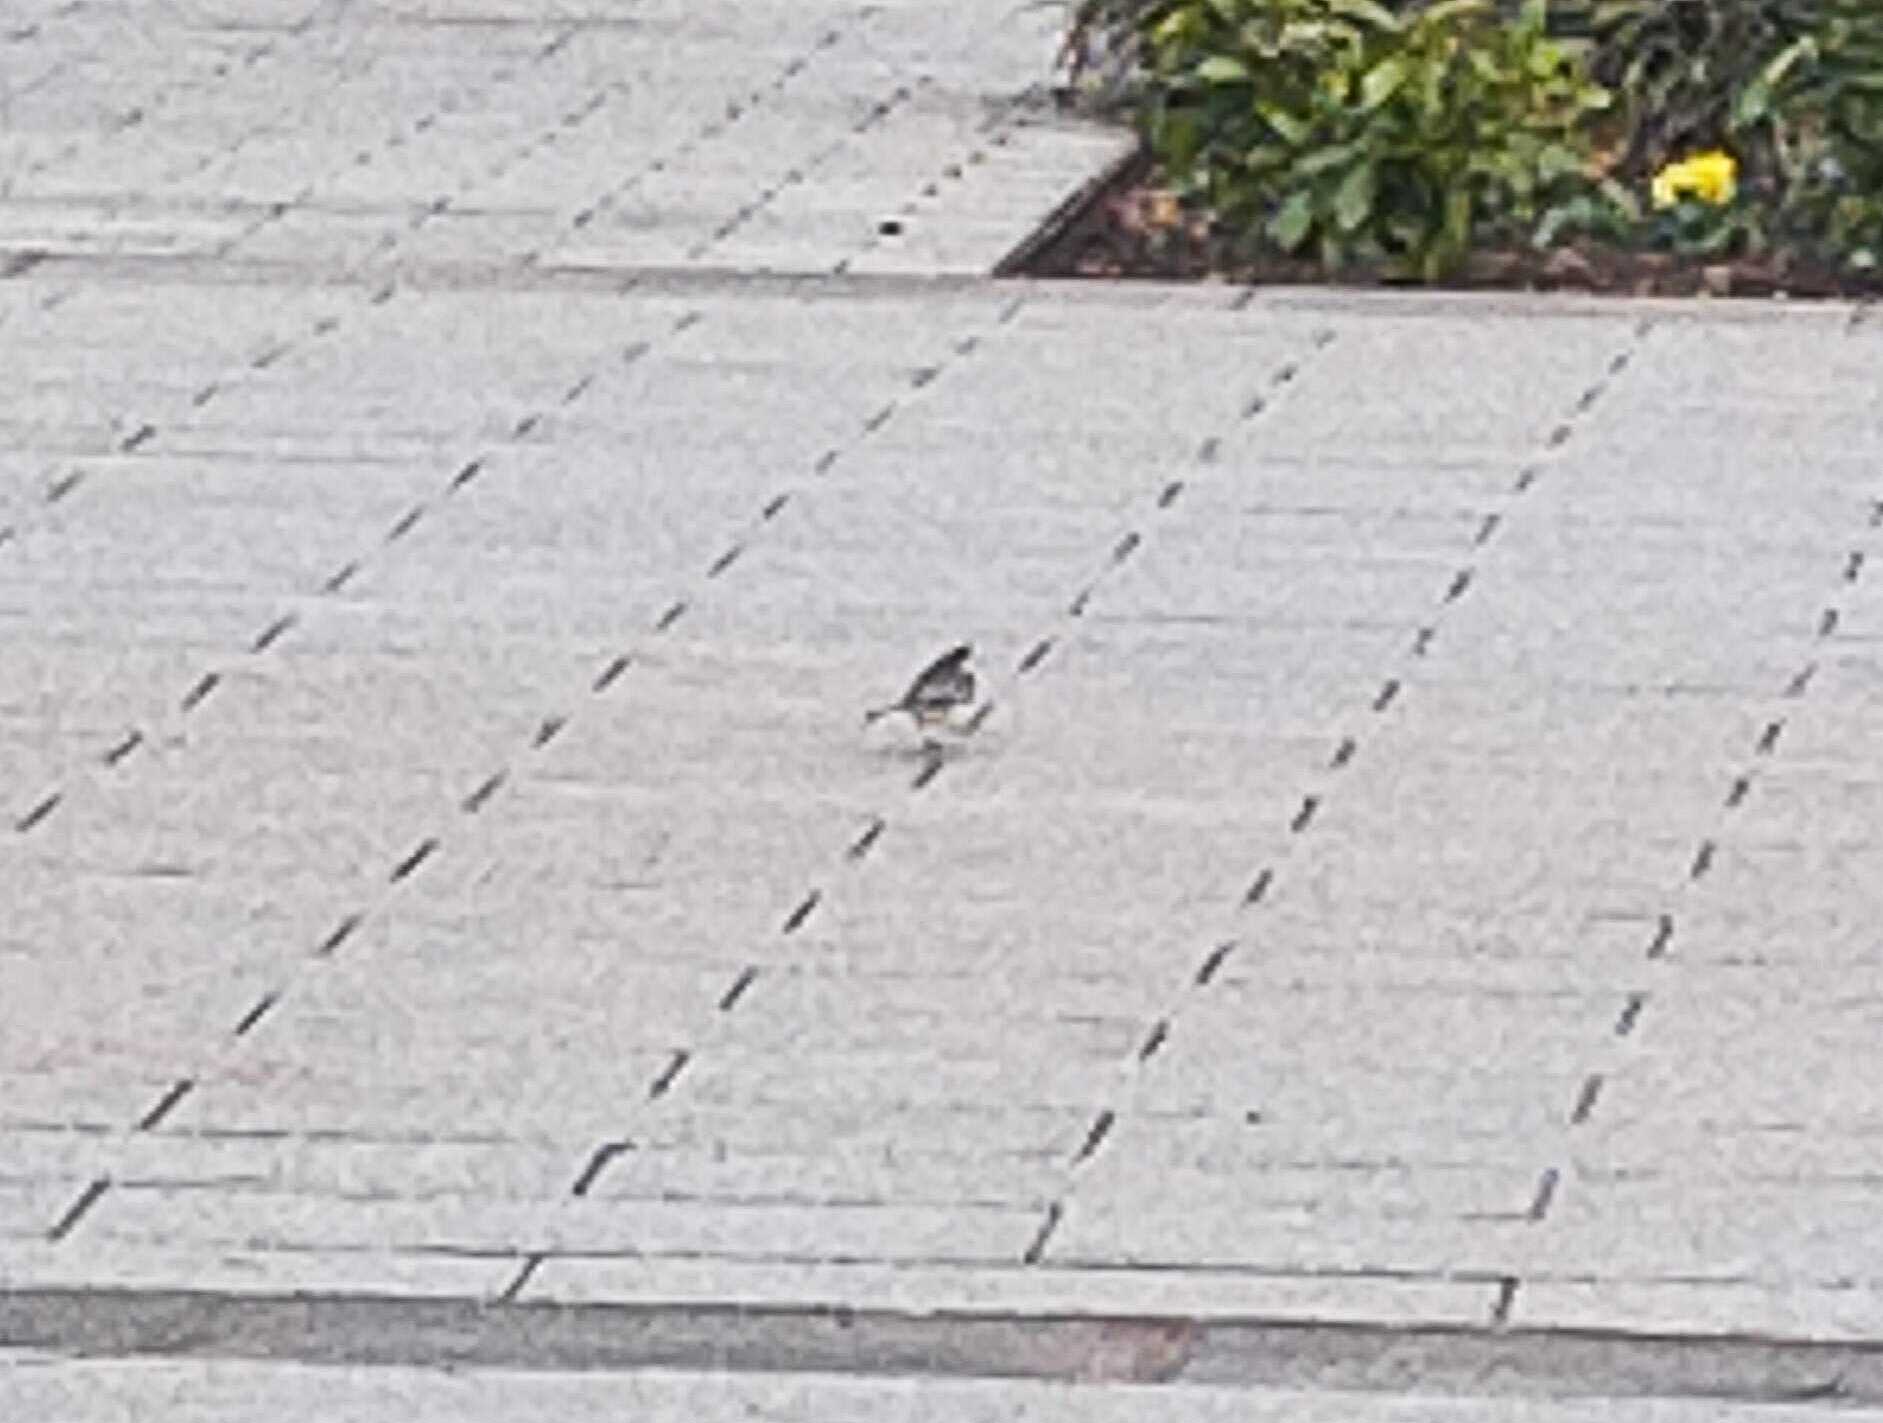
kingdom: Animalia
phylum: Chordata
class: Aves
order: Passeriformes
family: Motacillidae
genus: Motacilla
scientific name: Motacilla alba
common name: White wagtail
